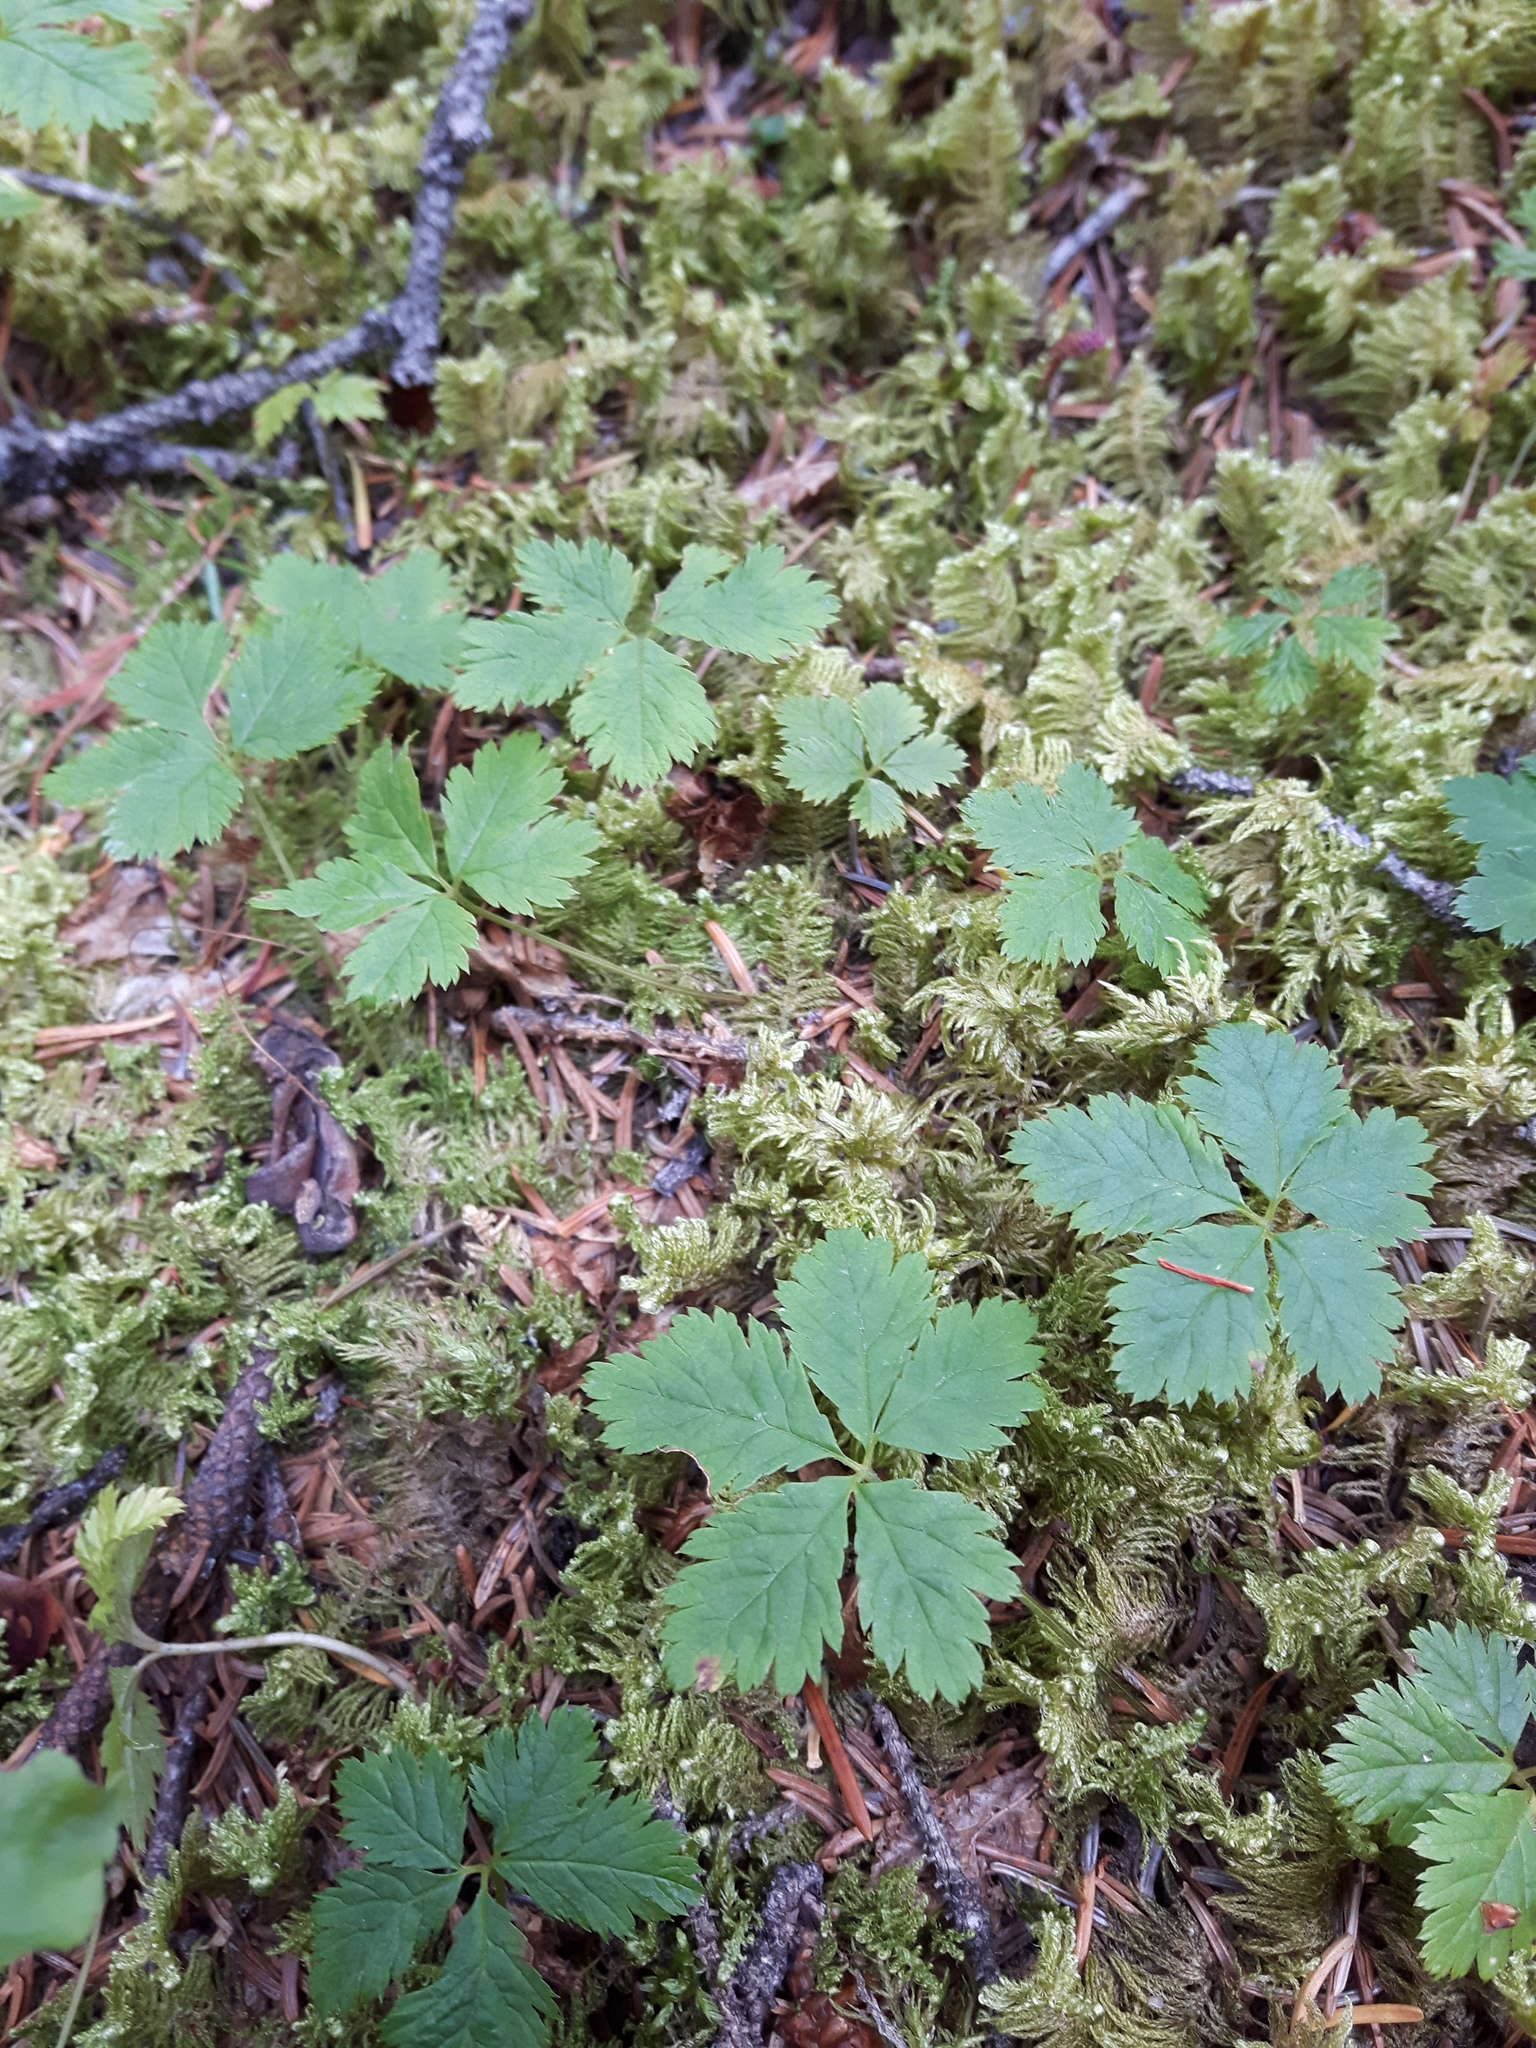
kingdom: Plantae
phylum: Tracheophyta
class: Magnoliopsida
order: Rosales
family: Rosaceae
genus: Rubus
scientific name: Rubus pedatus
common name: Creeping raspberry
